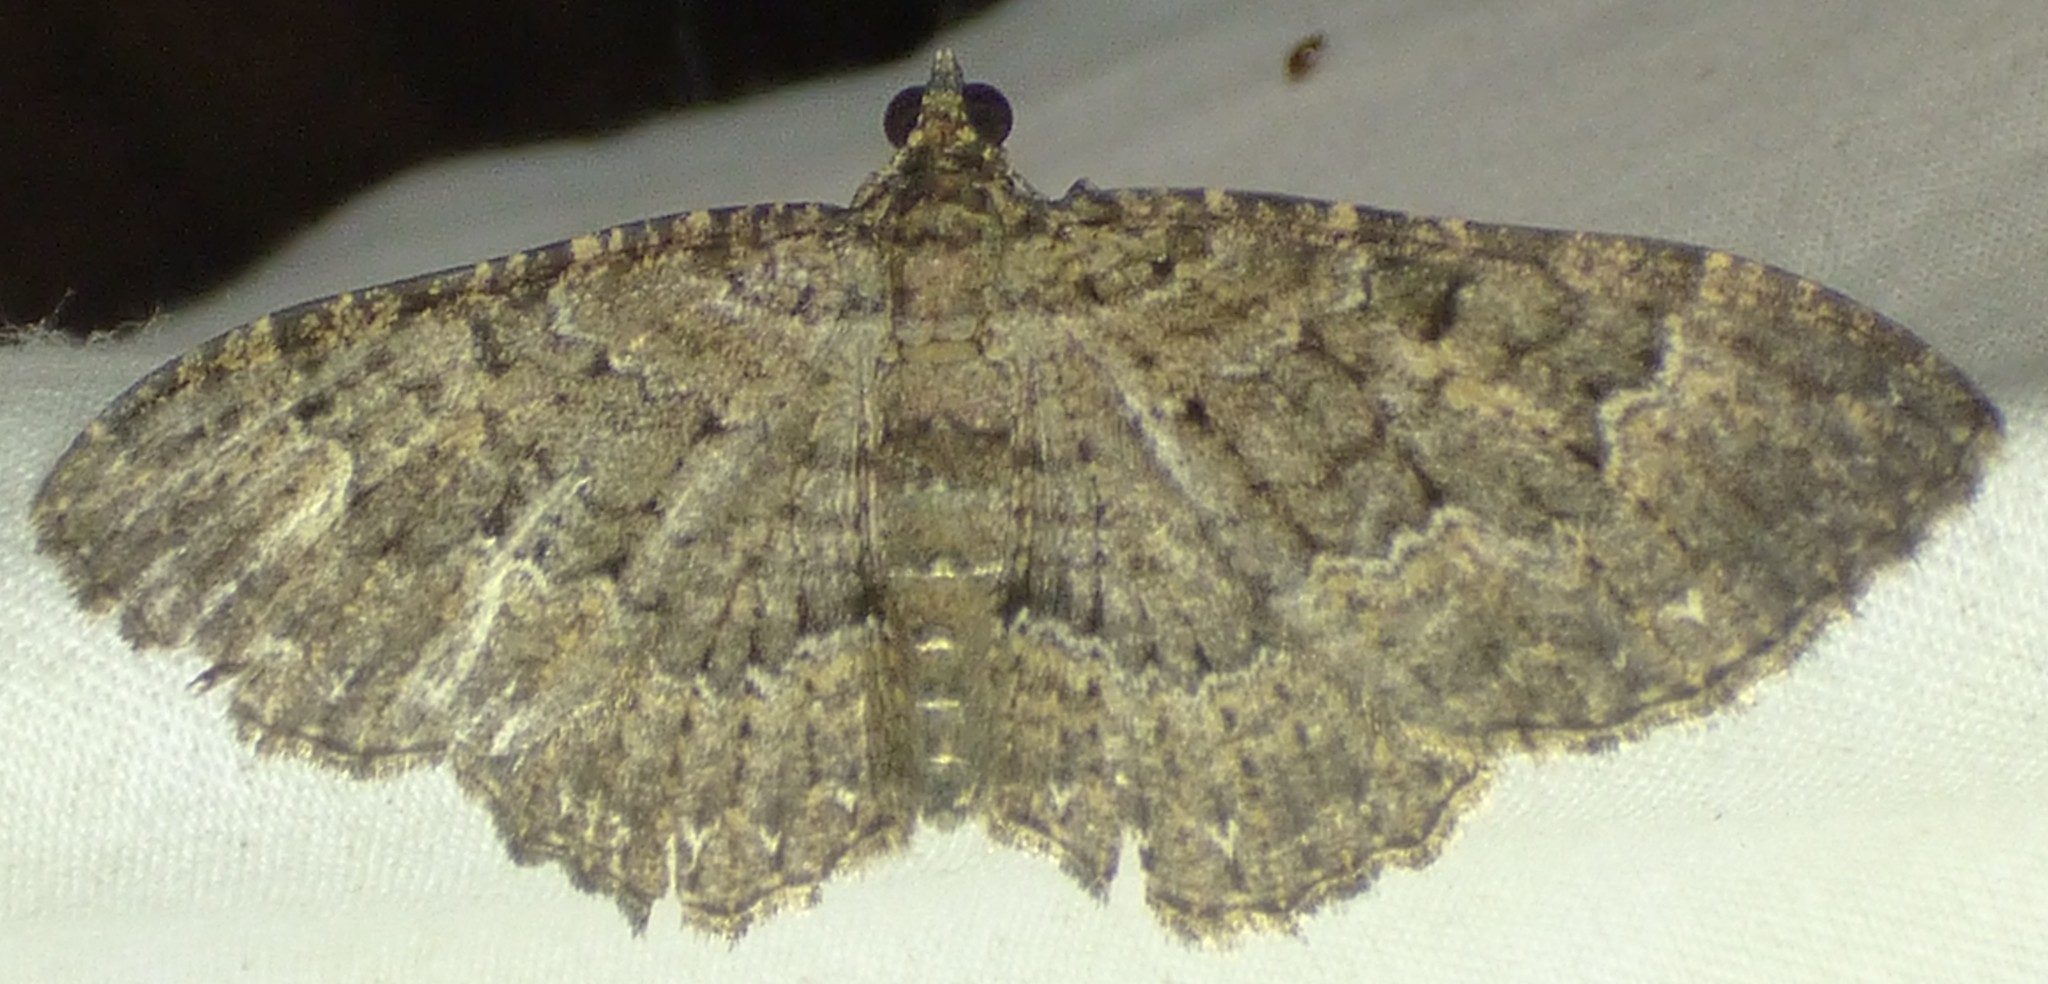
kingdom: Animalia
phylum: Arthropoda
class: Insecta
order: Lepidoptera
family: Geometridae
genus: Disclisioprocta
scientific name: Disclisioprocta stellata
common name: Somber carpet
